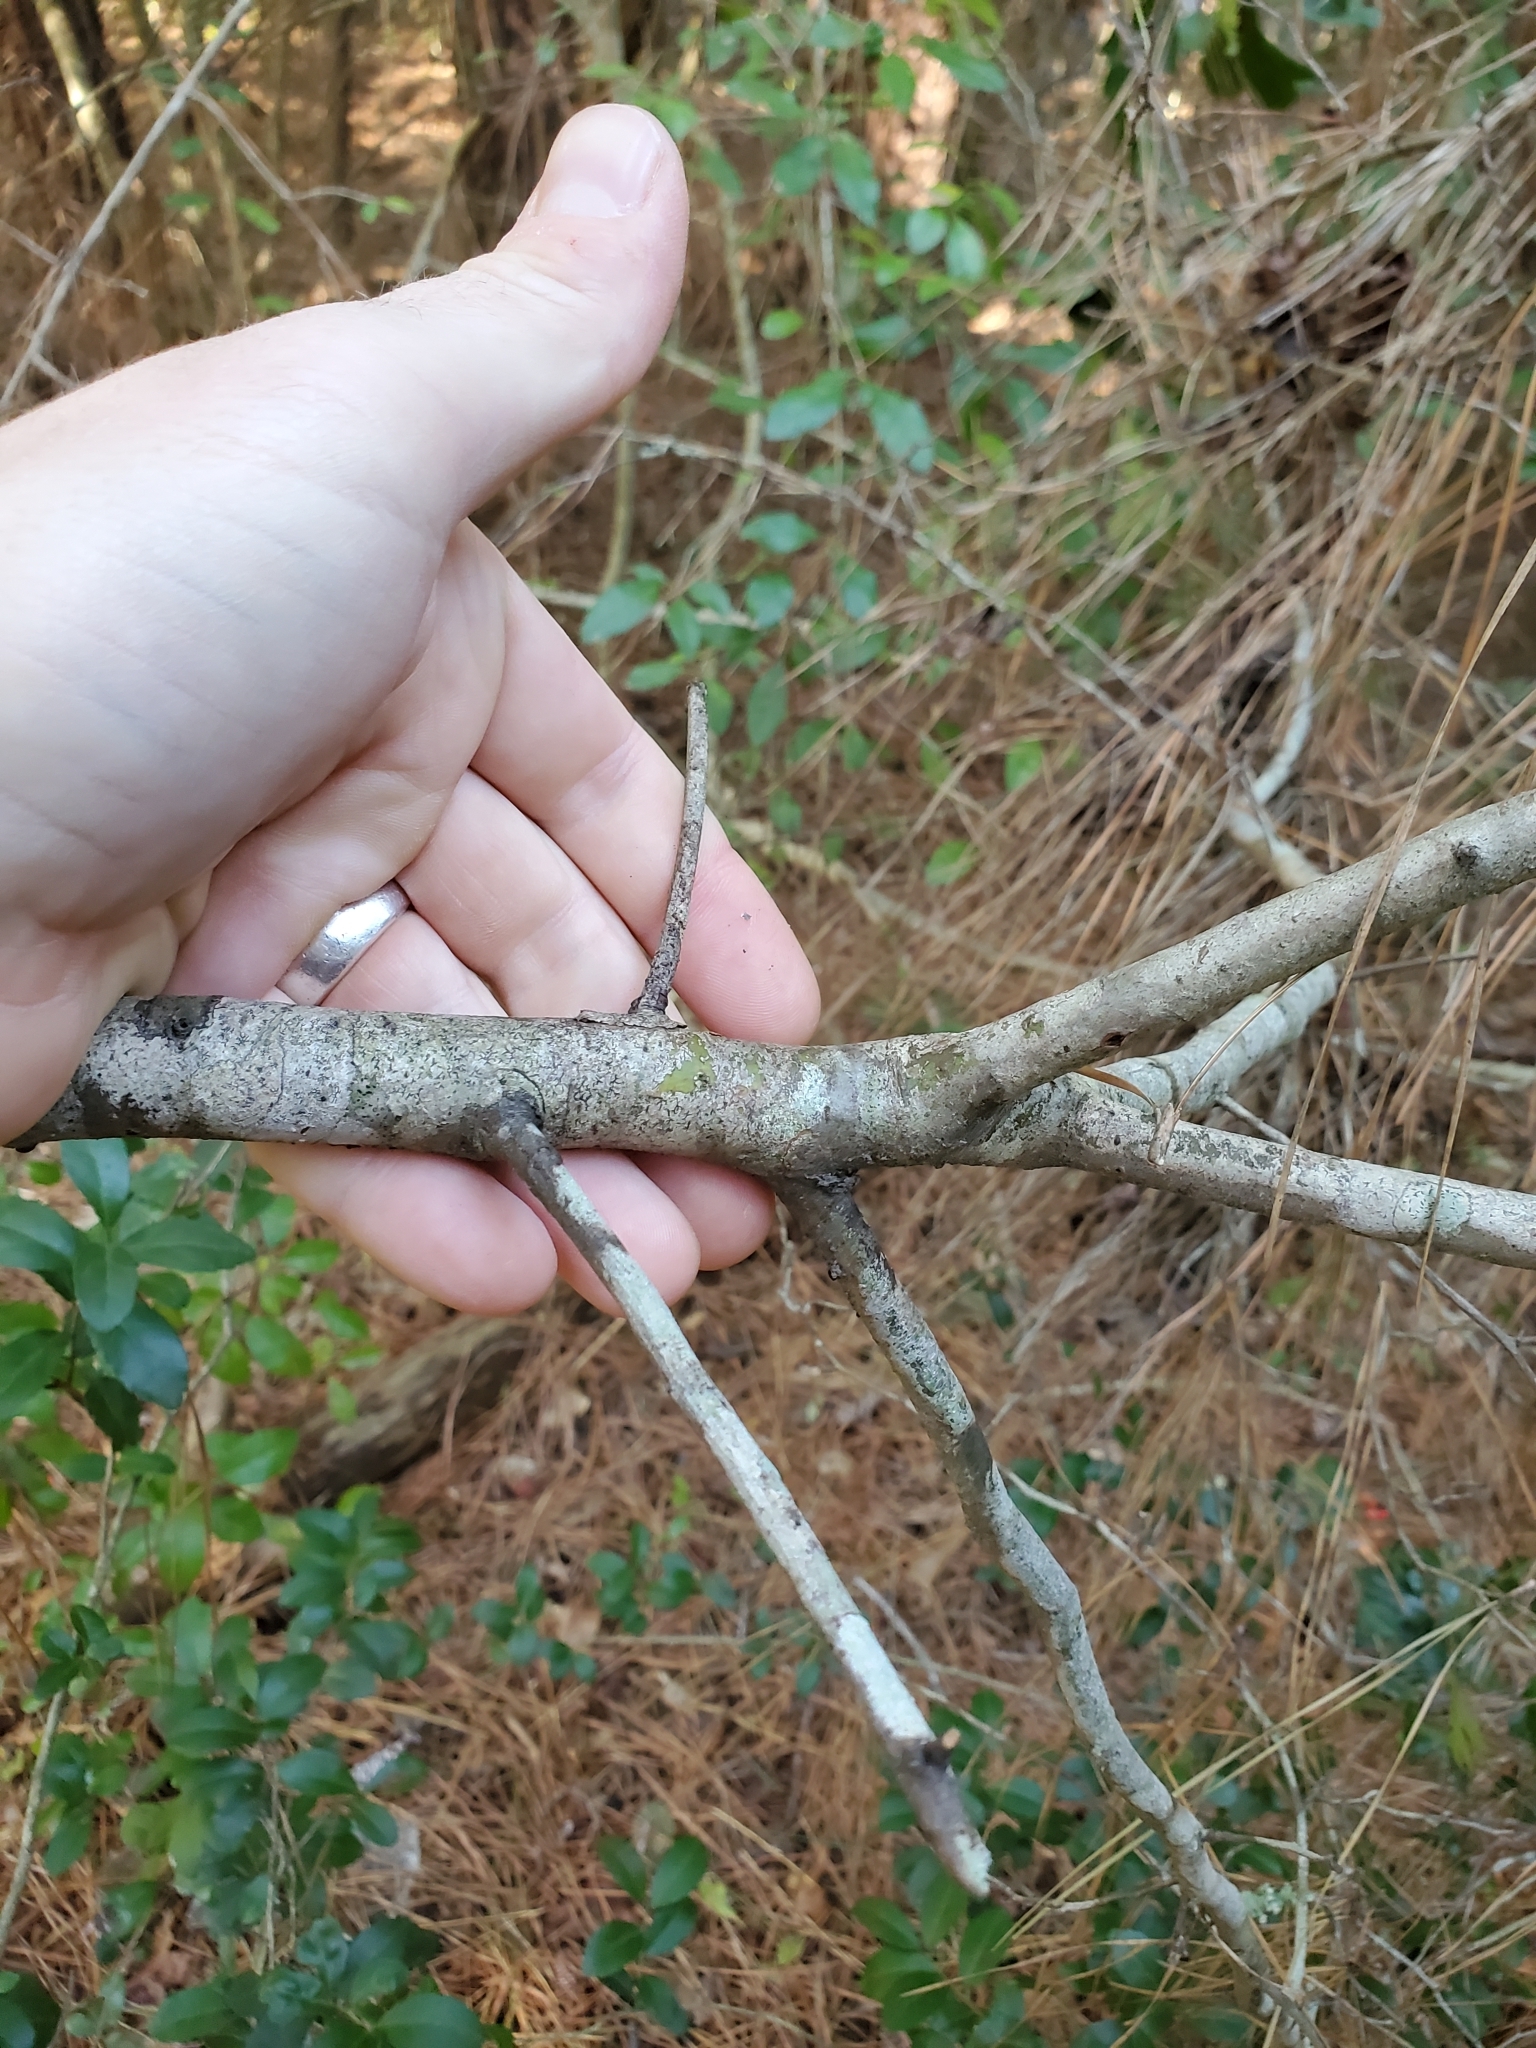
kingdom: Plantae
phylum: Tracheophyta
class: Magnoliopsida
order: Rosales
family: Rosaceae
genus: Crataegus
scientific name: Crataegus marshallii
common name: Parsley-hawthorn
